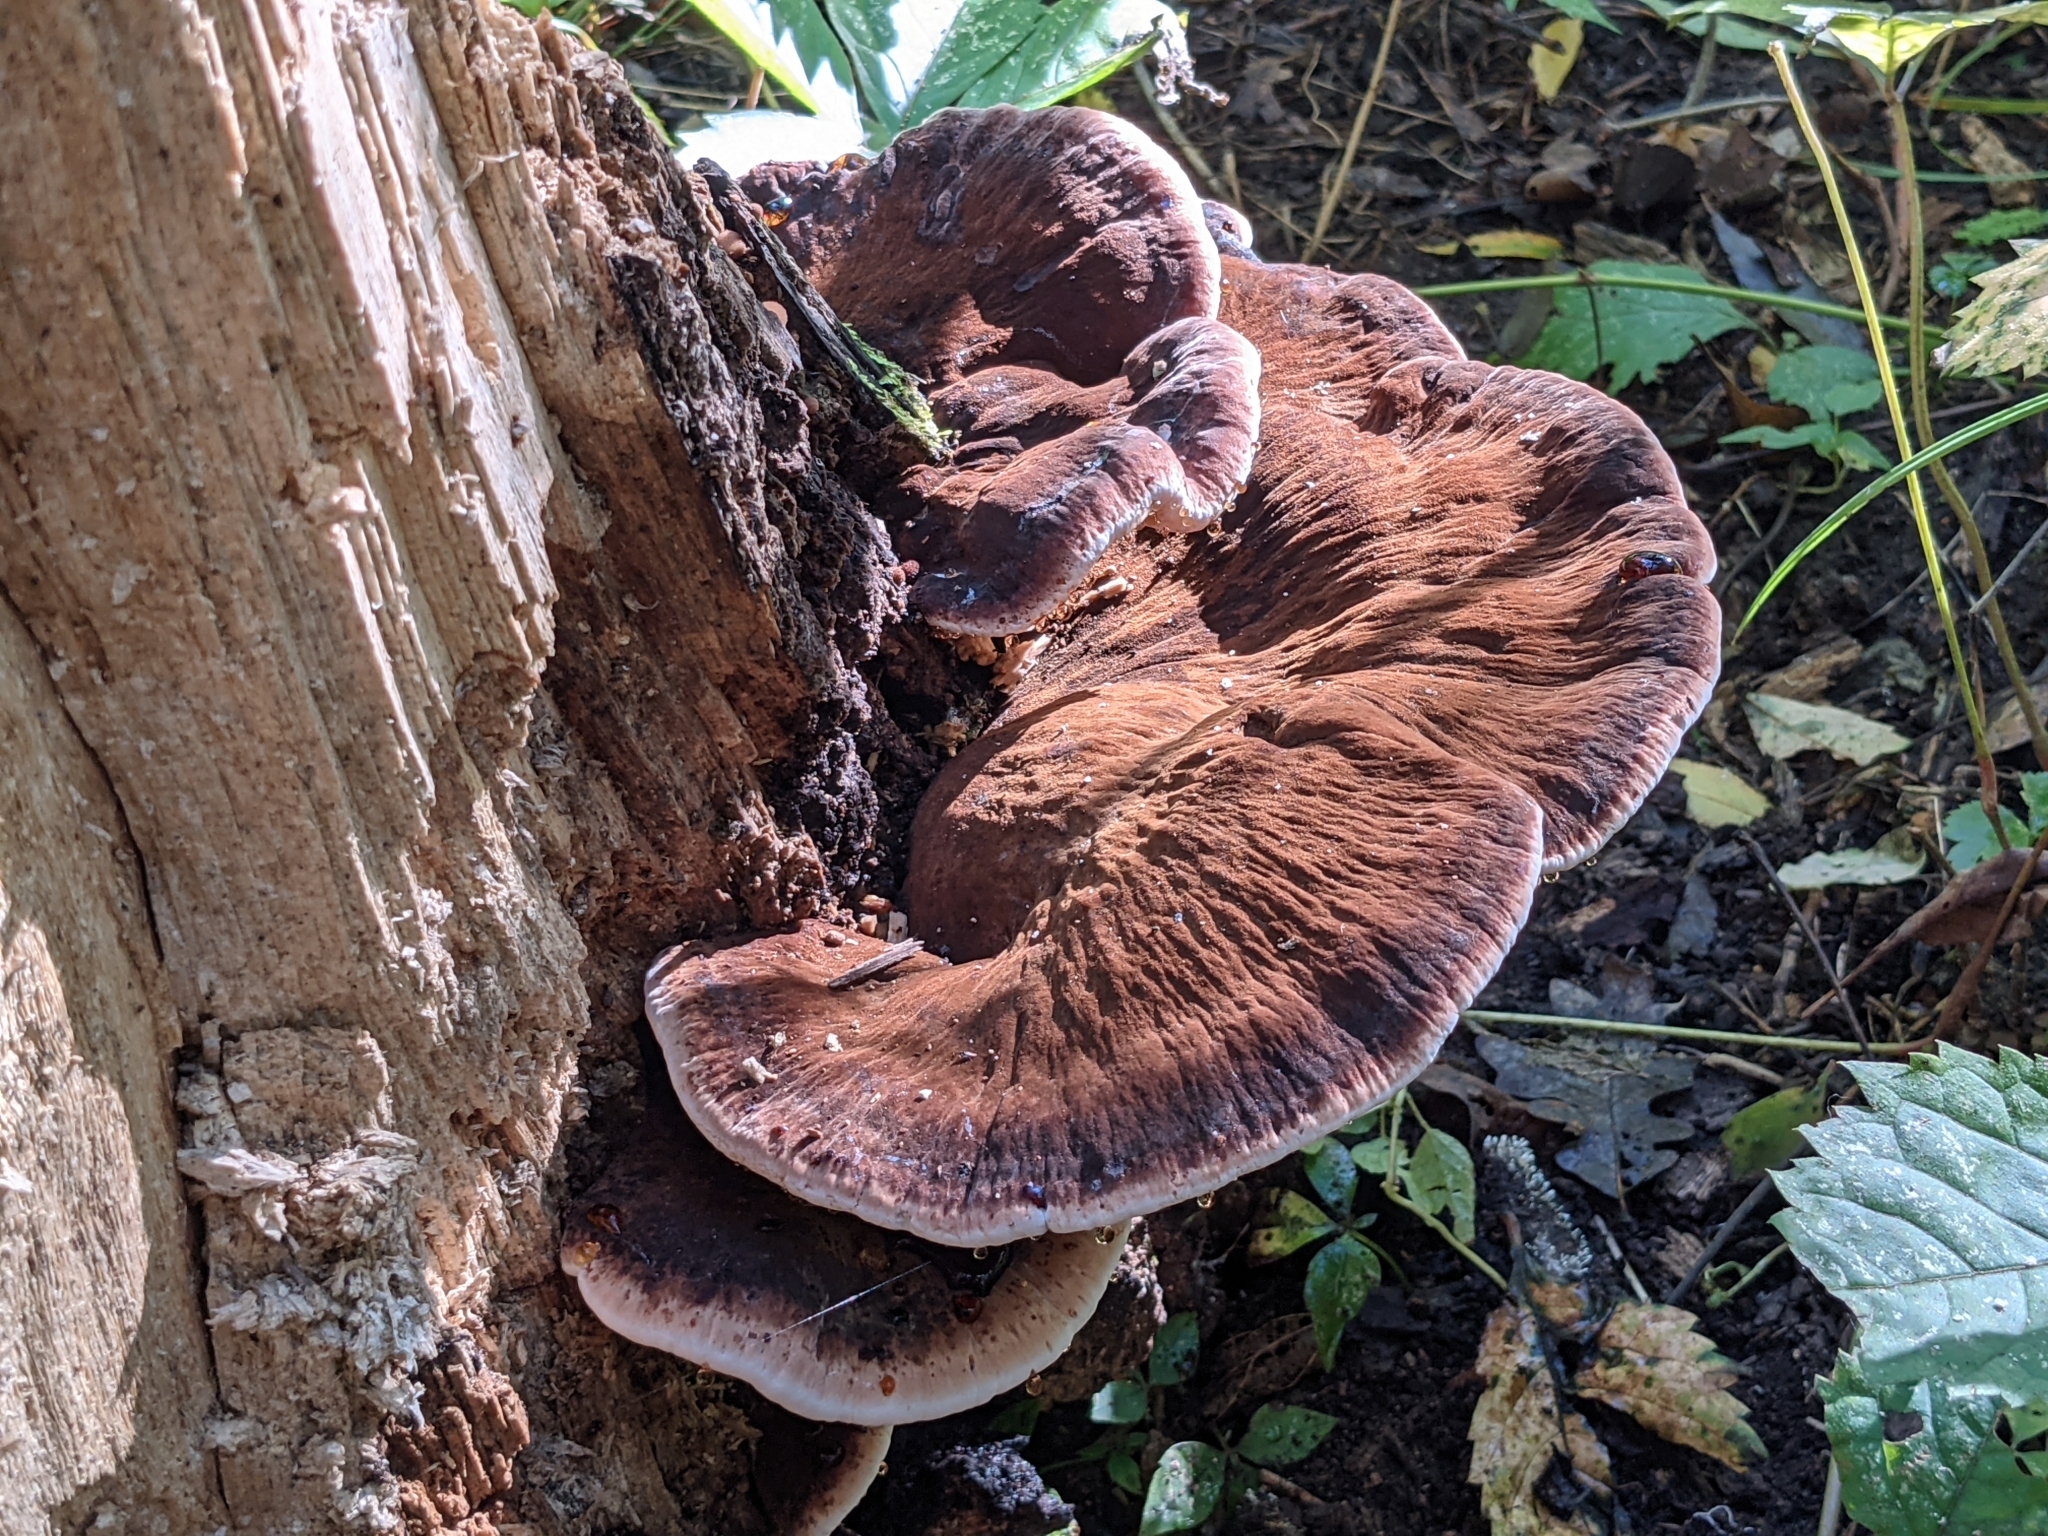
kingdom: Fungi
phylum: Basidiomycota
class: Agaricomycetes
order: Polyporales
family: Ischnodermataceae
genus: Ischnoderma
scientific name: Ischnoderma resinosum
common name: Resinous polypore
